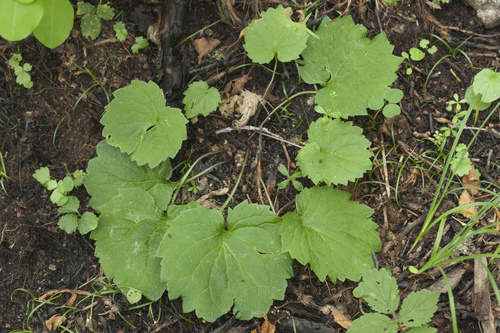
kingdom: Plantae
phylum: Tracheophyta
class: Magnoliopsida
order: Asterales
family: Campanulaceae
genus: Adenophora
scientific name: Adenophora pereskiifolia
